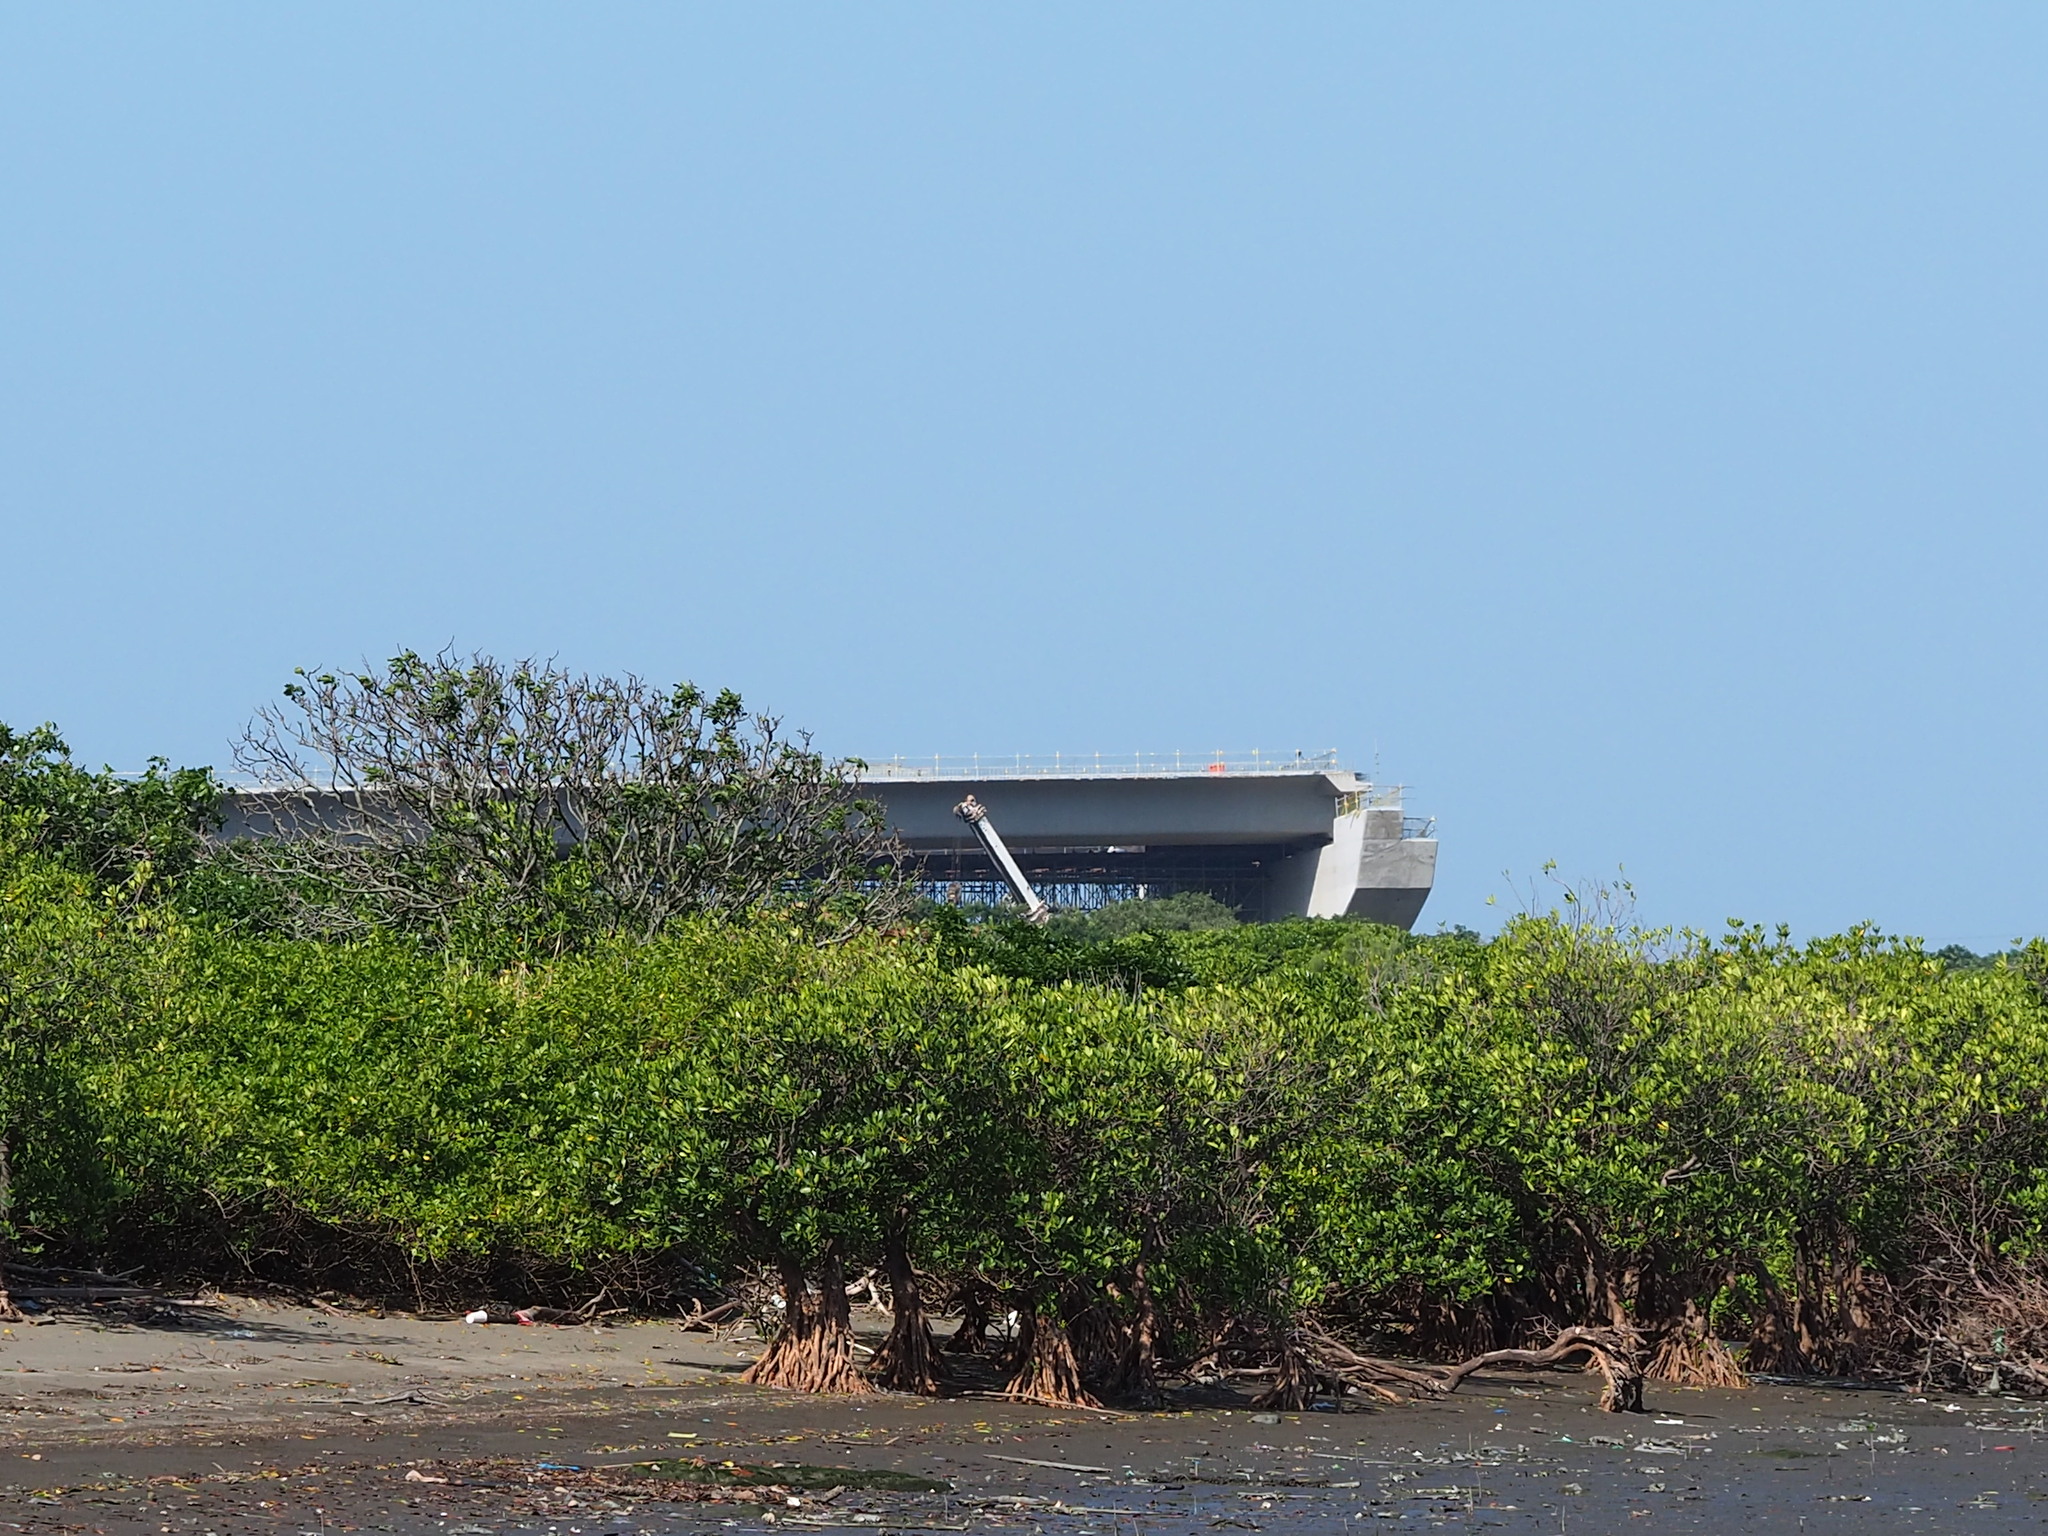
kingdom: Plantae
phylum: Tracheophyta
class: Magnoliopsida
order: Malpighiales
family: Rhizophoraceae
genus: Kandelia
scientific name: Kandelia obovata
